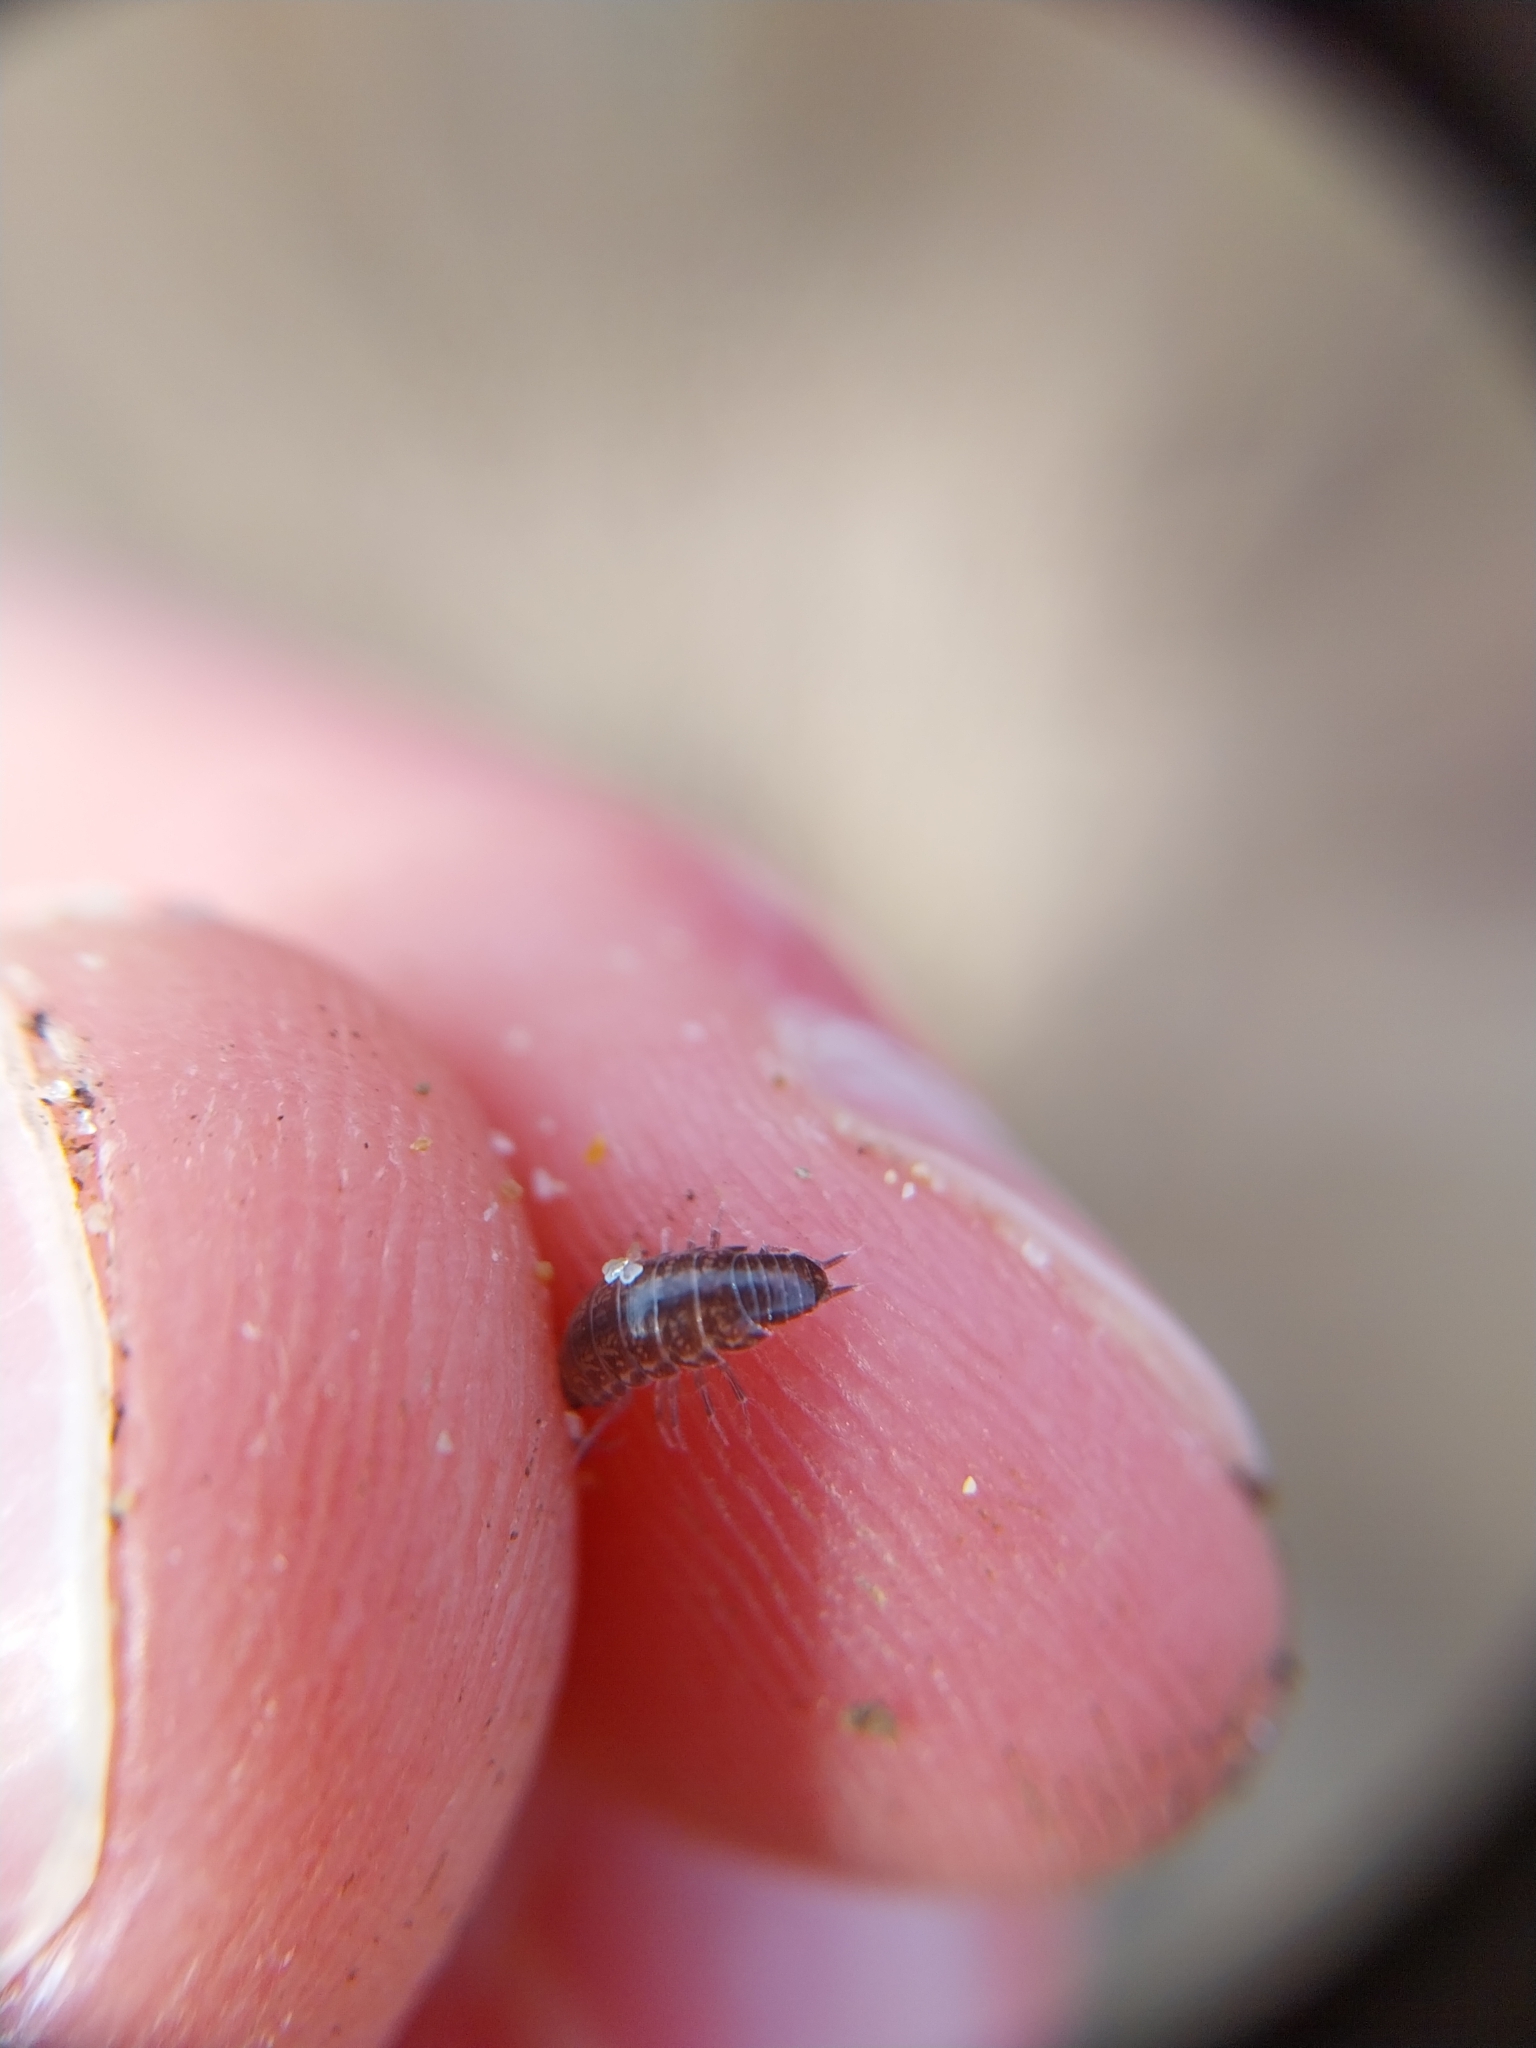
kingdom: Animalia
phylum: Arthropoda
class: Malacostraca
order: Isopoda
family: Philosciidae
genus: Chaetophiloscia
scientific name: Chaetophiloscia sicula
